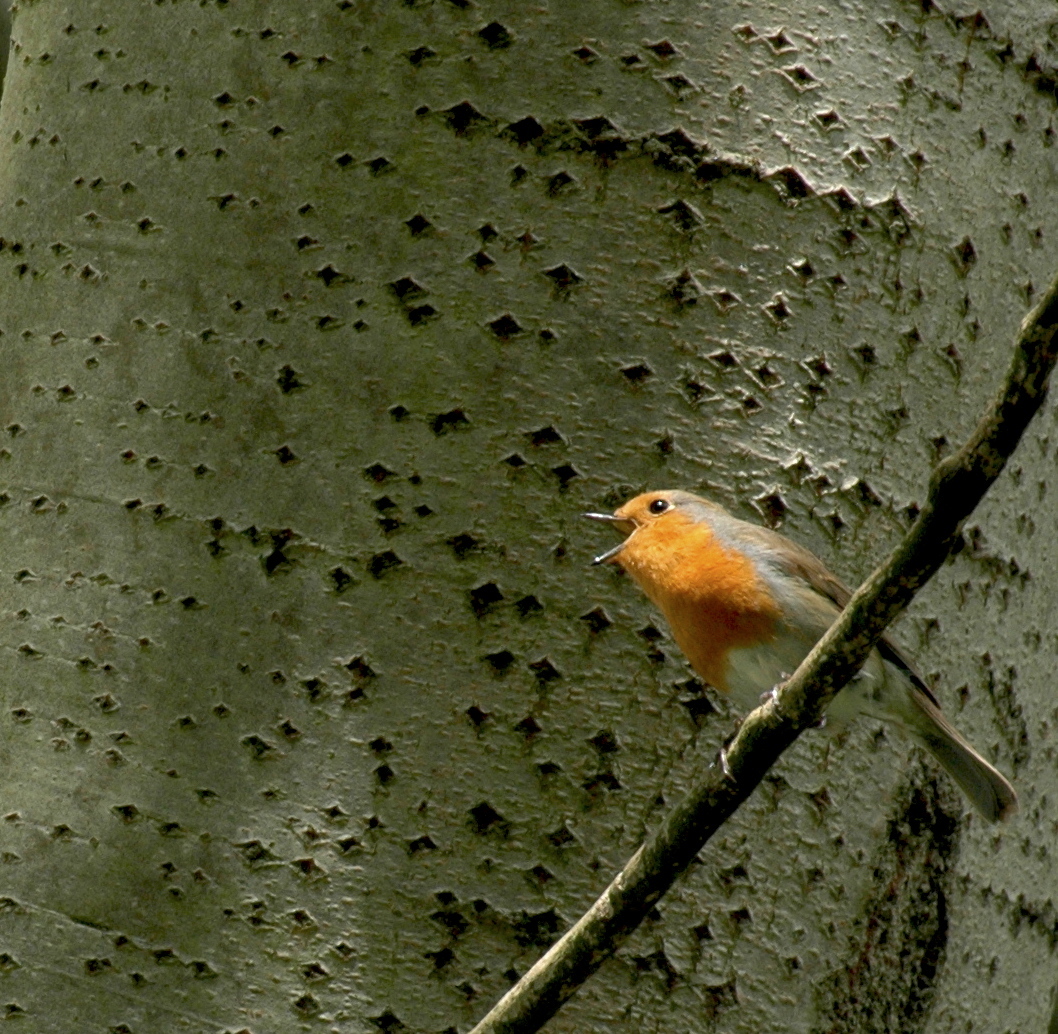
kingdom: Animalia
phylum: Chordata
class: Aves
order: Passeriformes
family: Muscicapidae
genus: Erithacus
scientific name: Erithacus rubecula
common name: European robin
